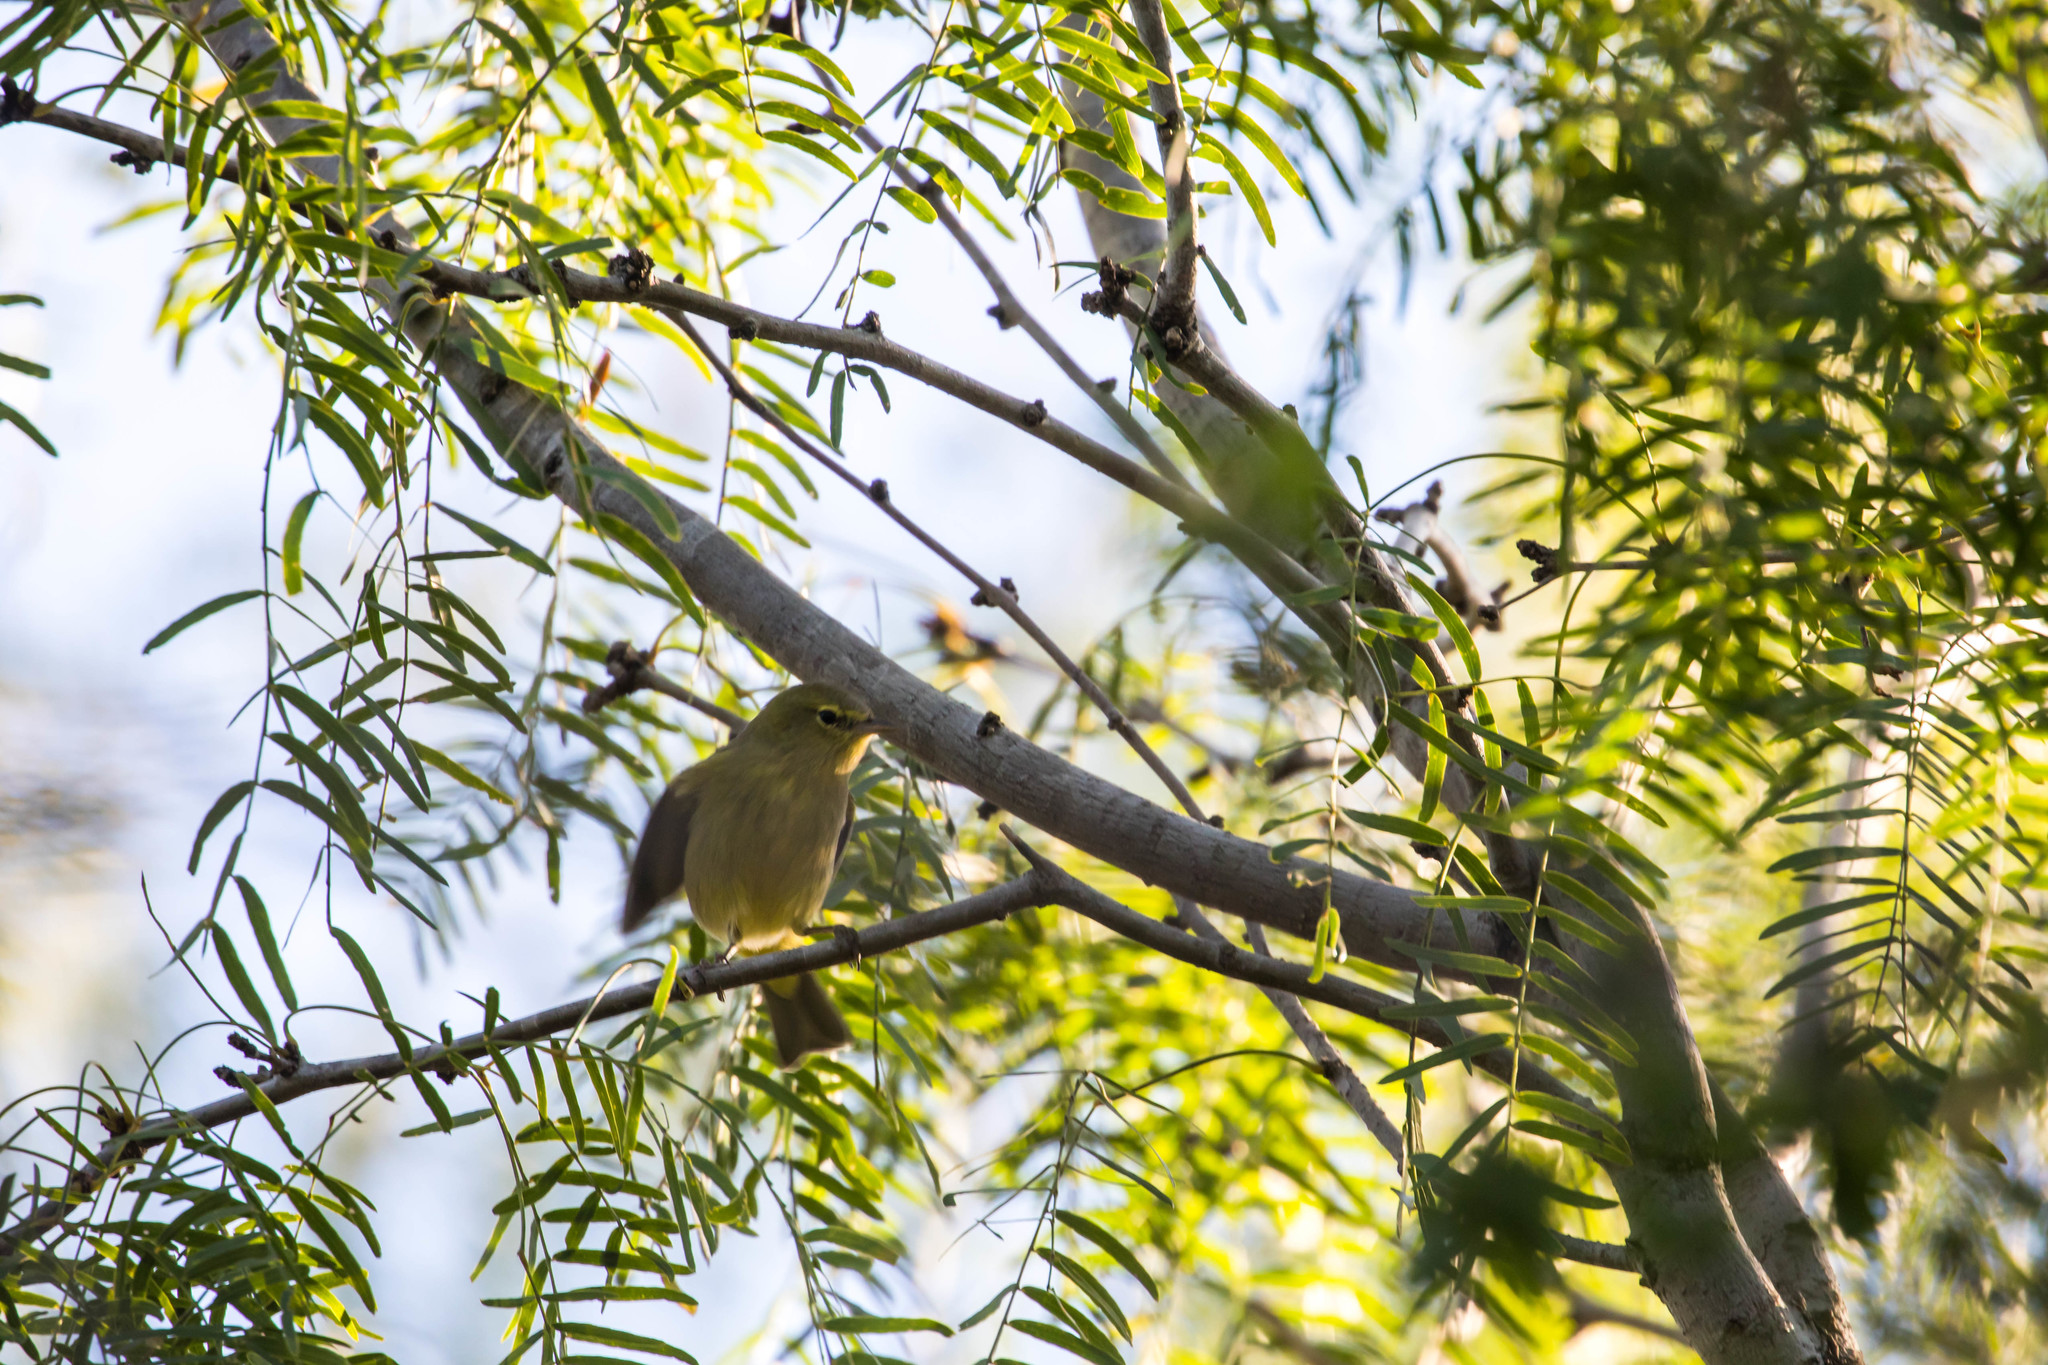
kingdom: Animalia
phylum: Chordata
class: Aves
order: Passeriformes
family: Parulidae
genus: Leiothlypis
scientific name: Leiothlypis celata
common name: Orange-crowned warbler
